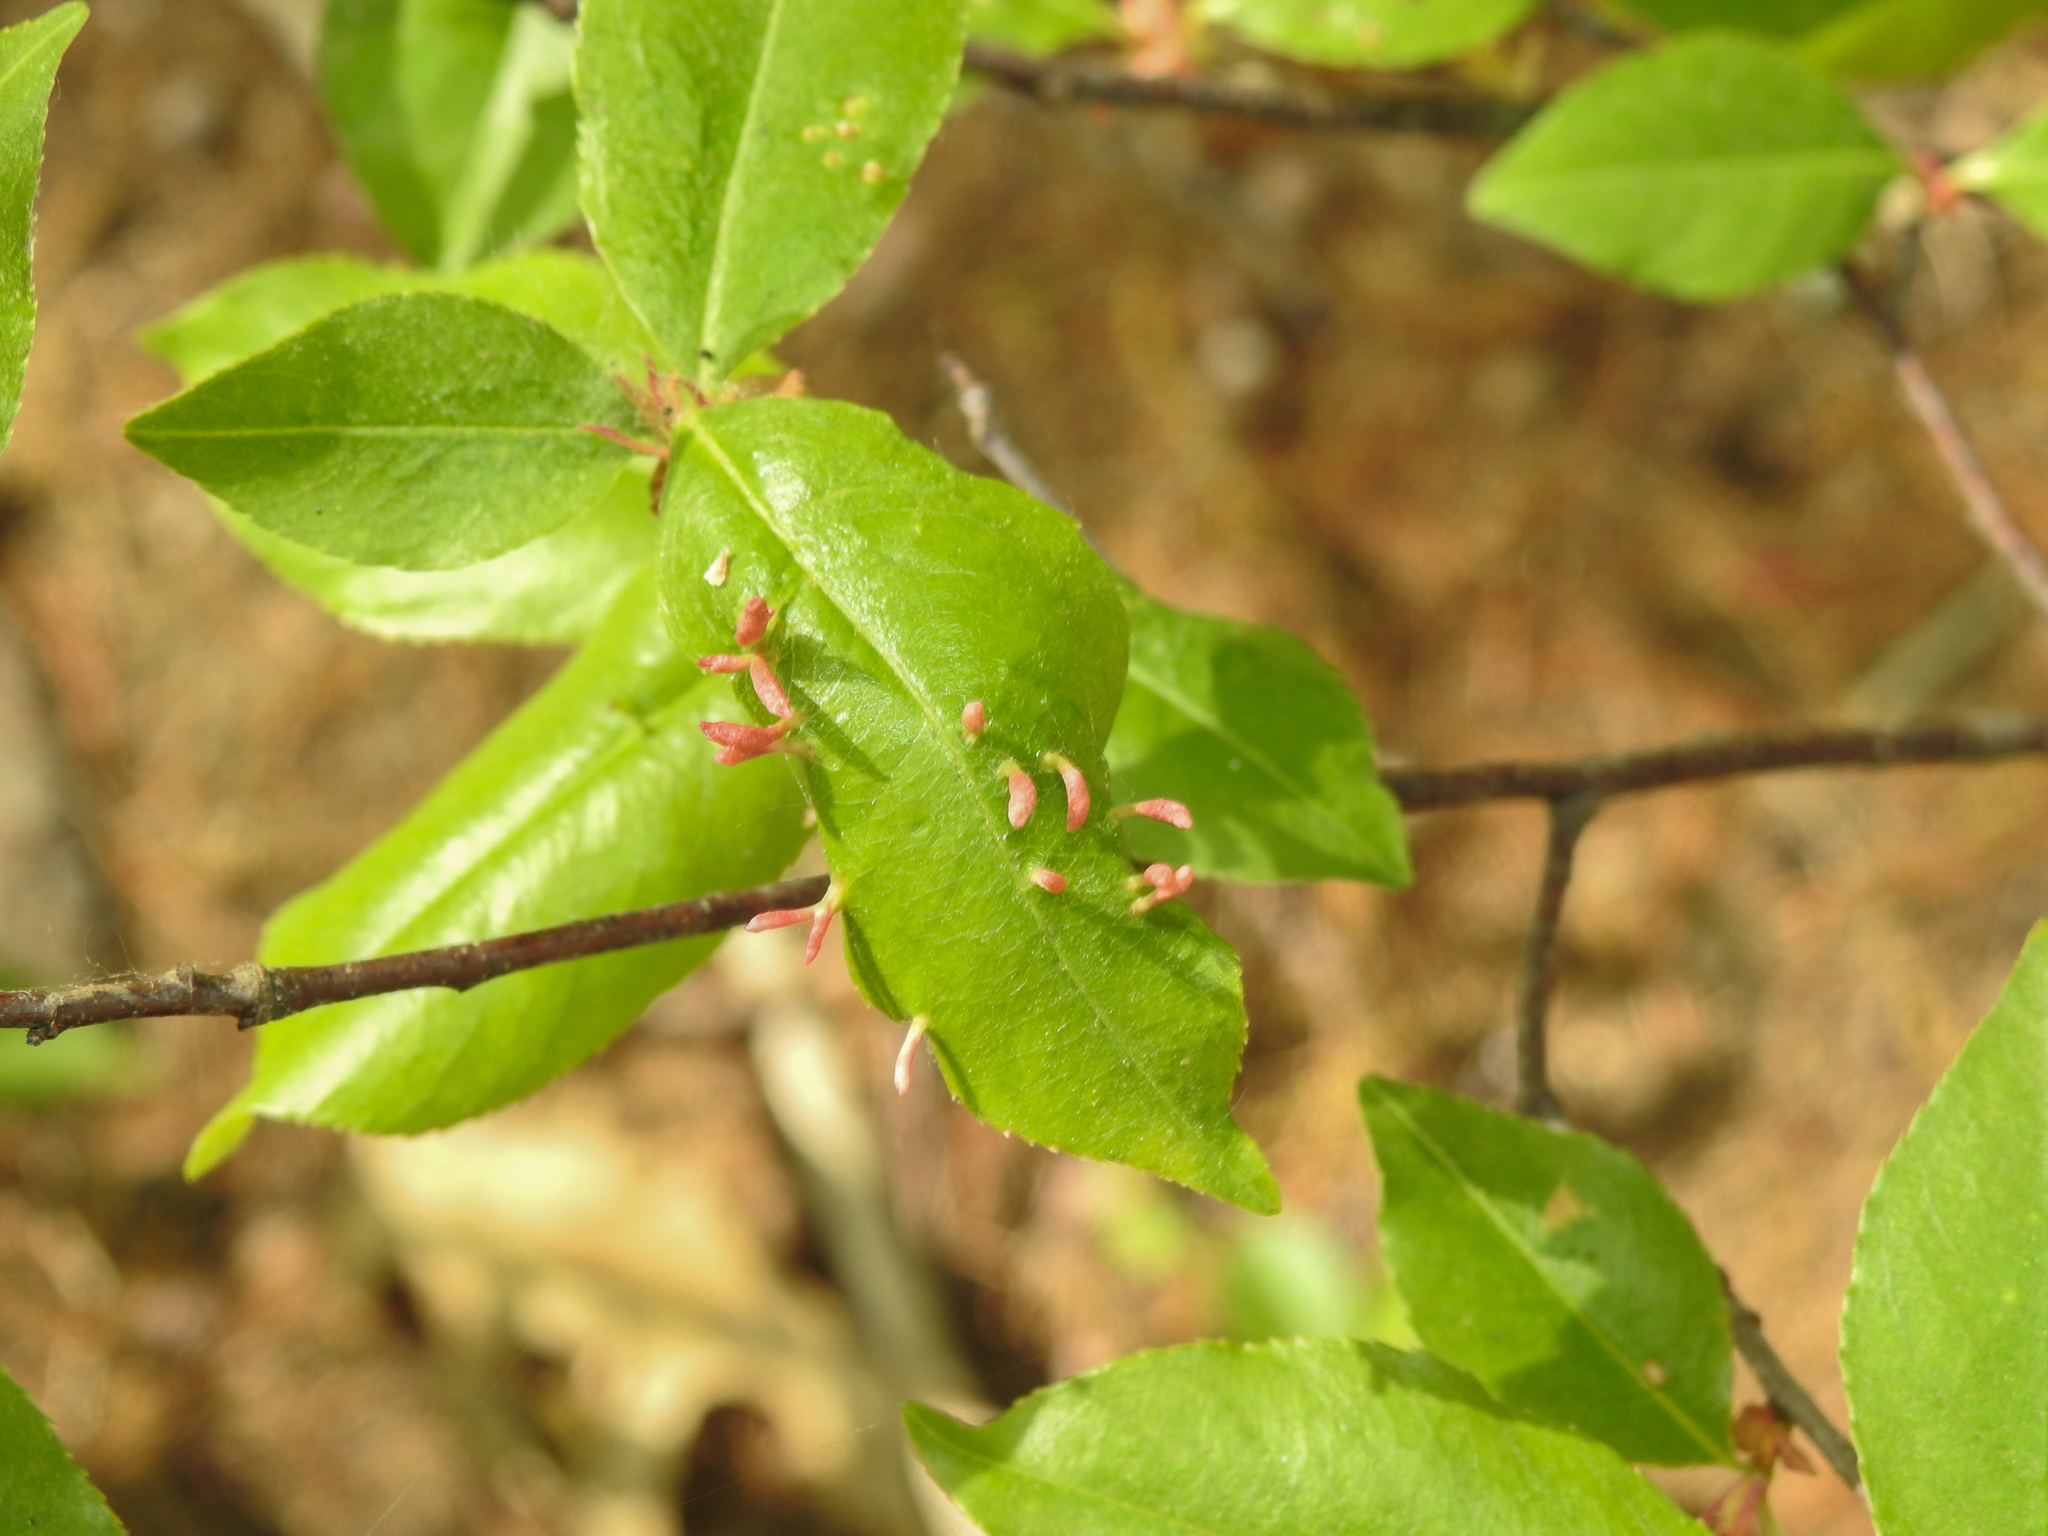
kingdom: Animalia
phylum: Arthropoda
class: Arachnida
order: Trombidiformes
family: Eriophyidae
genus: Eriophyes
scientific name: Eriophyes
